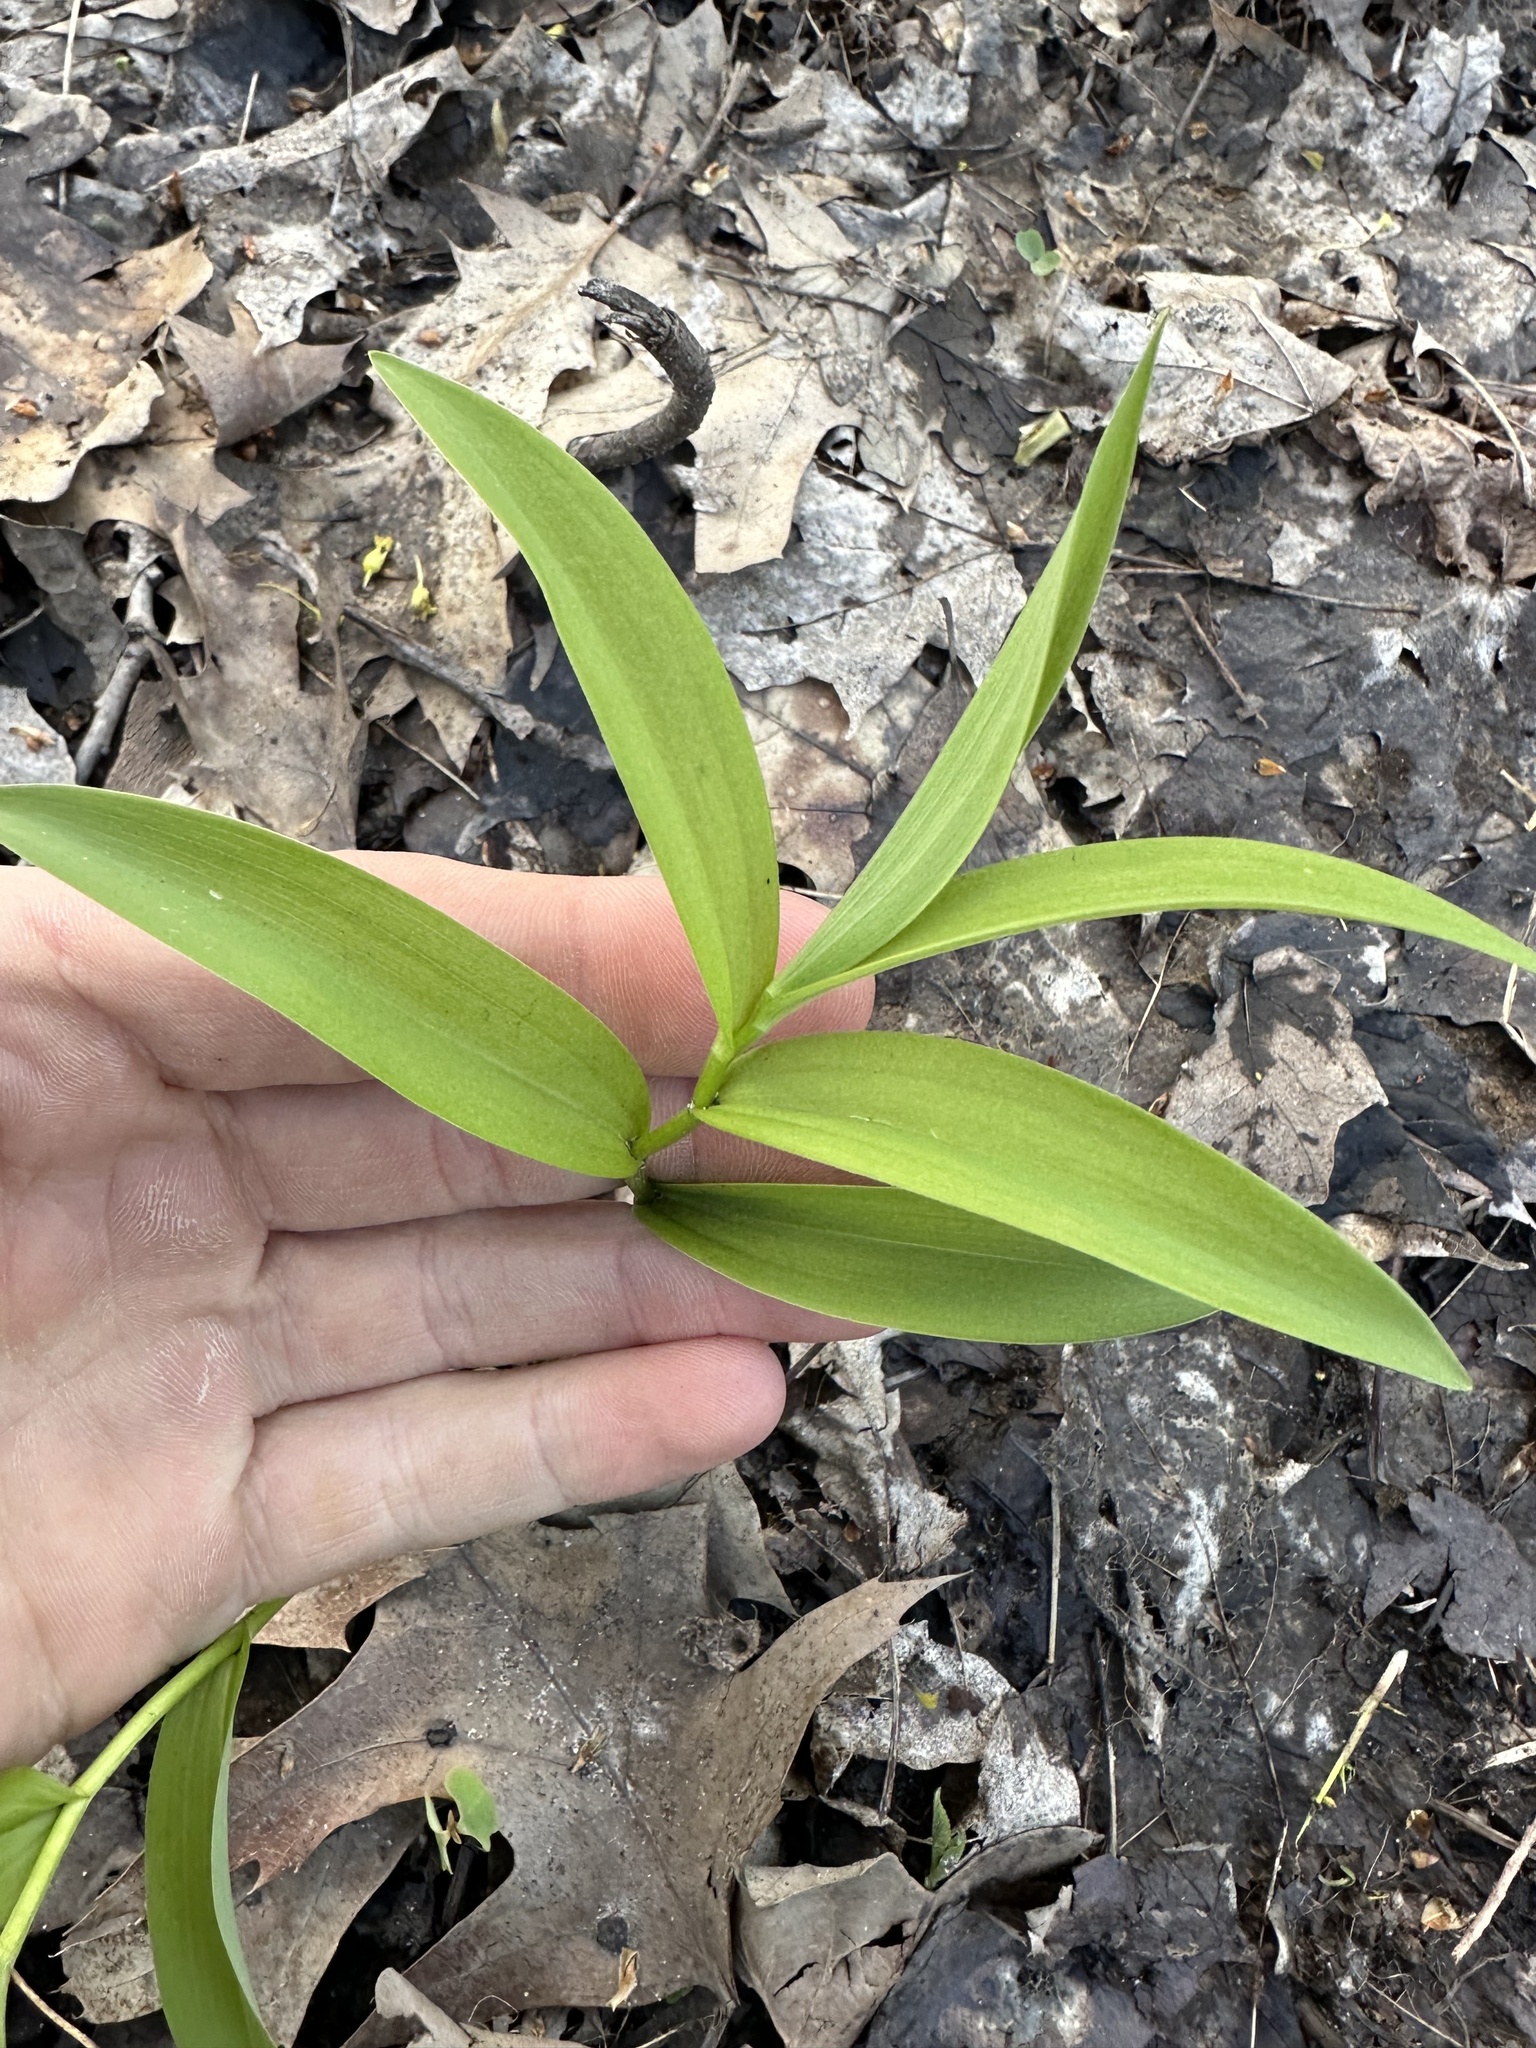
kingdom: Plantae
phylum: Tracheophyta
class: Liliopsida
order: Asparagales
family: Asparagaceae
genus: Maianthemum
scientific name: Maianthemum stellatum
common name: Little false solomon's seal
